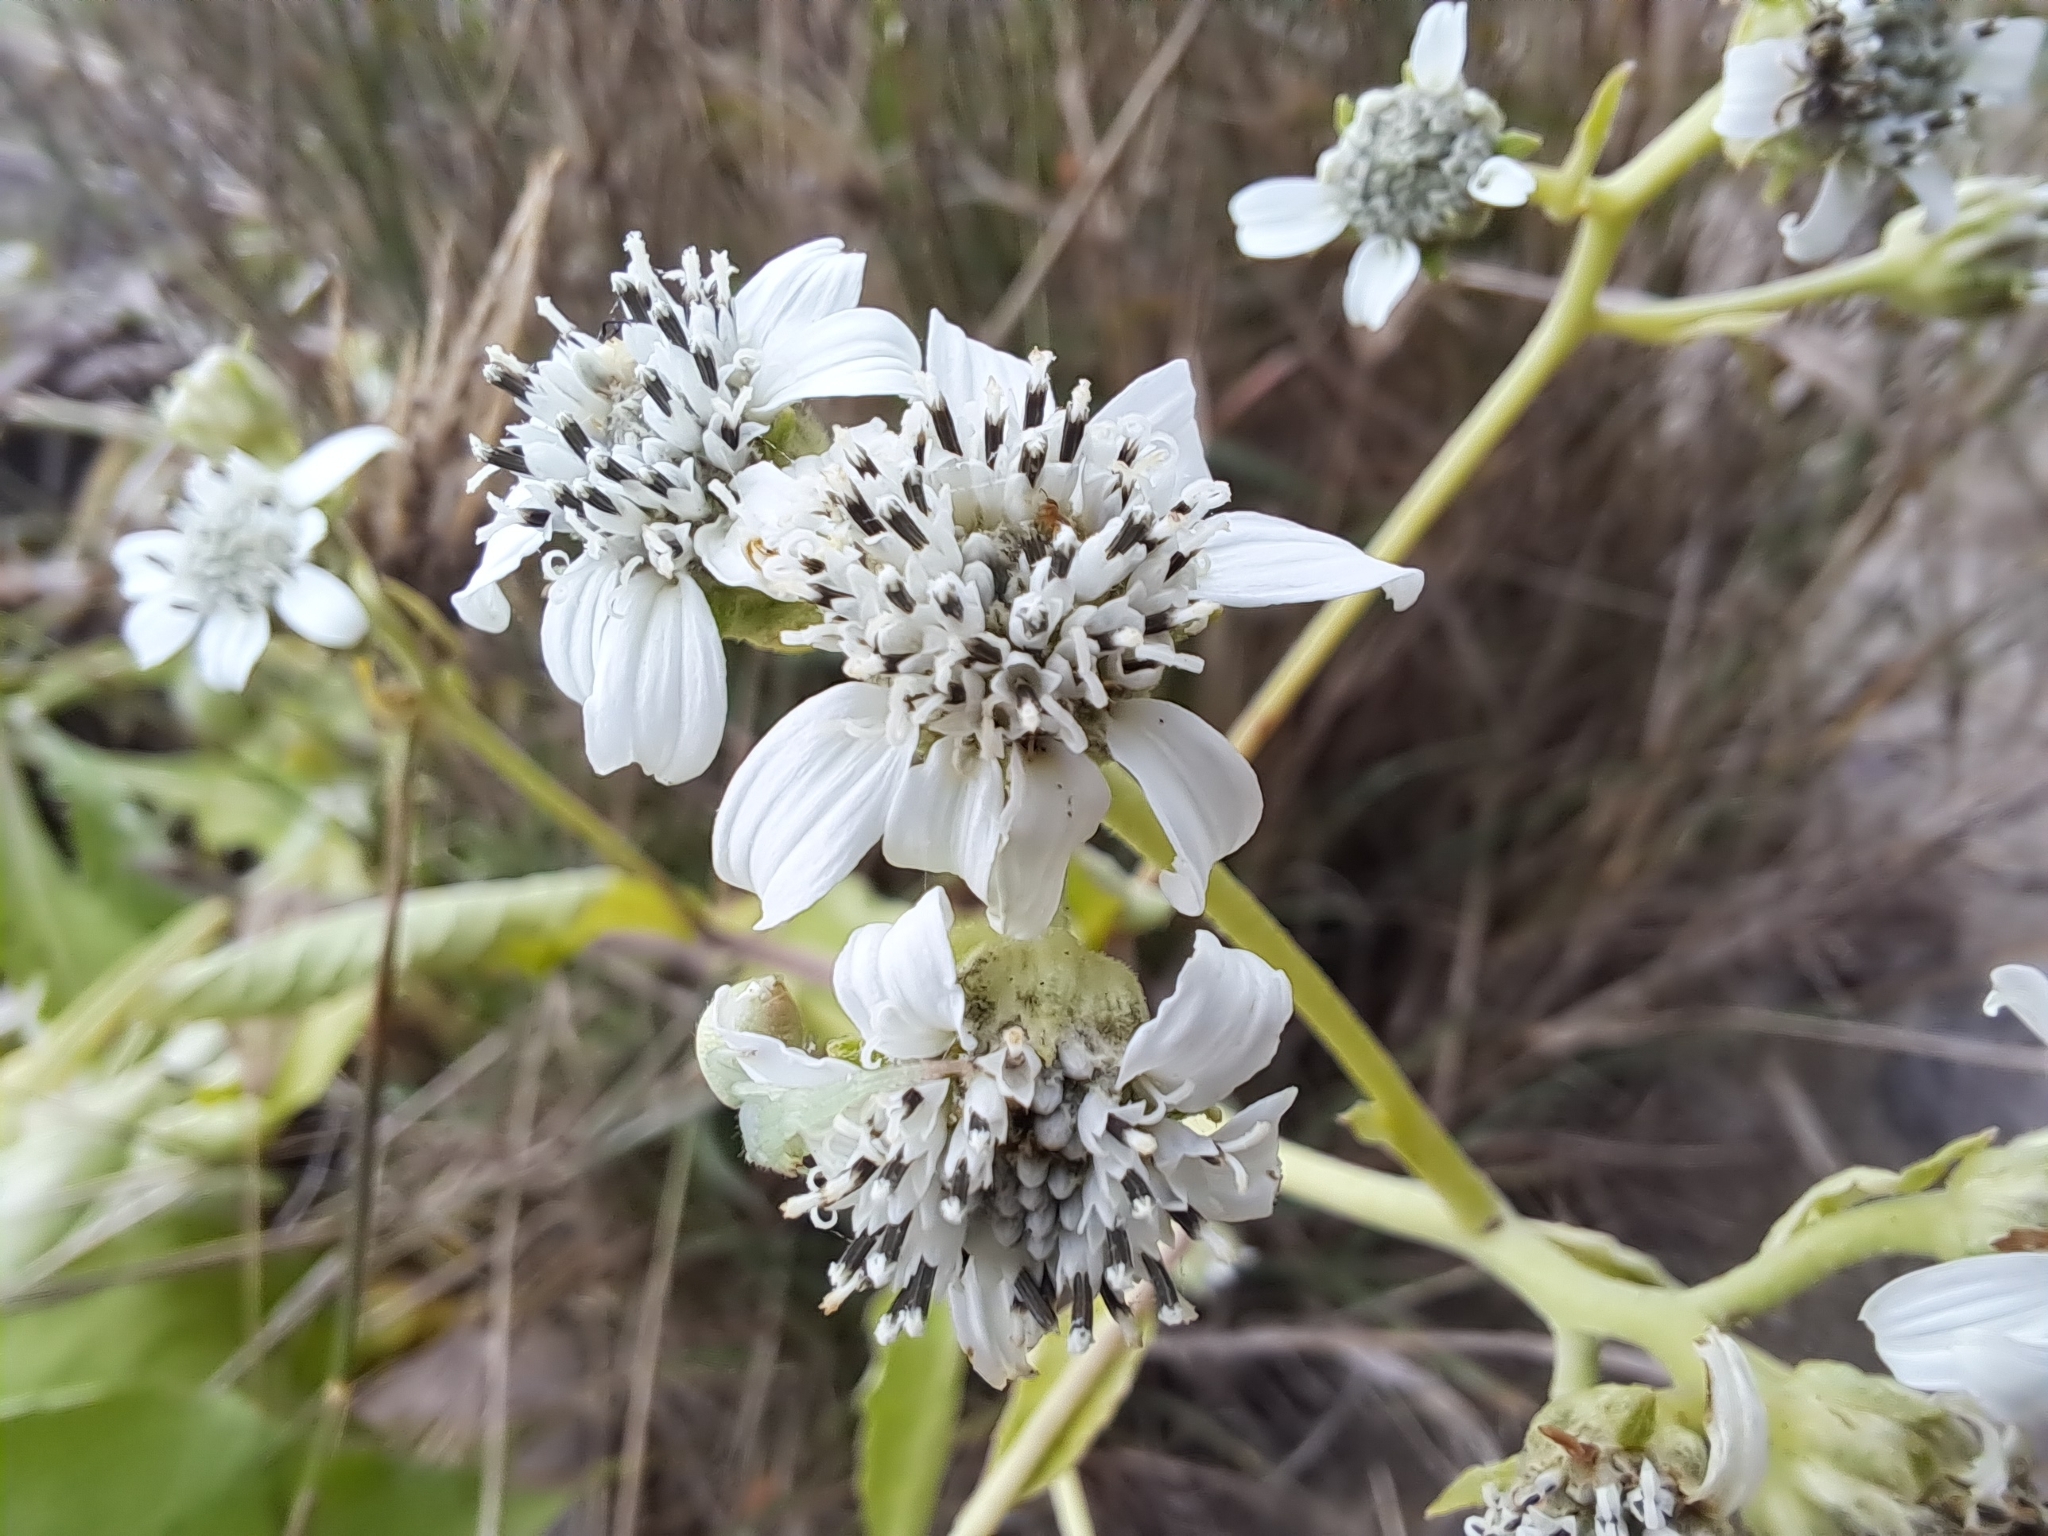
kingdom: Plantae
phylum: Tracheophyta
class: Magnoliopsida
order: Asterales
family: Asteraceae
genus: Verbesina
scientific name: Verbesina eggersii
